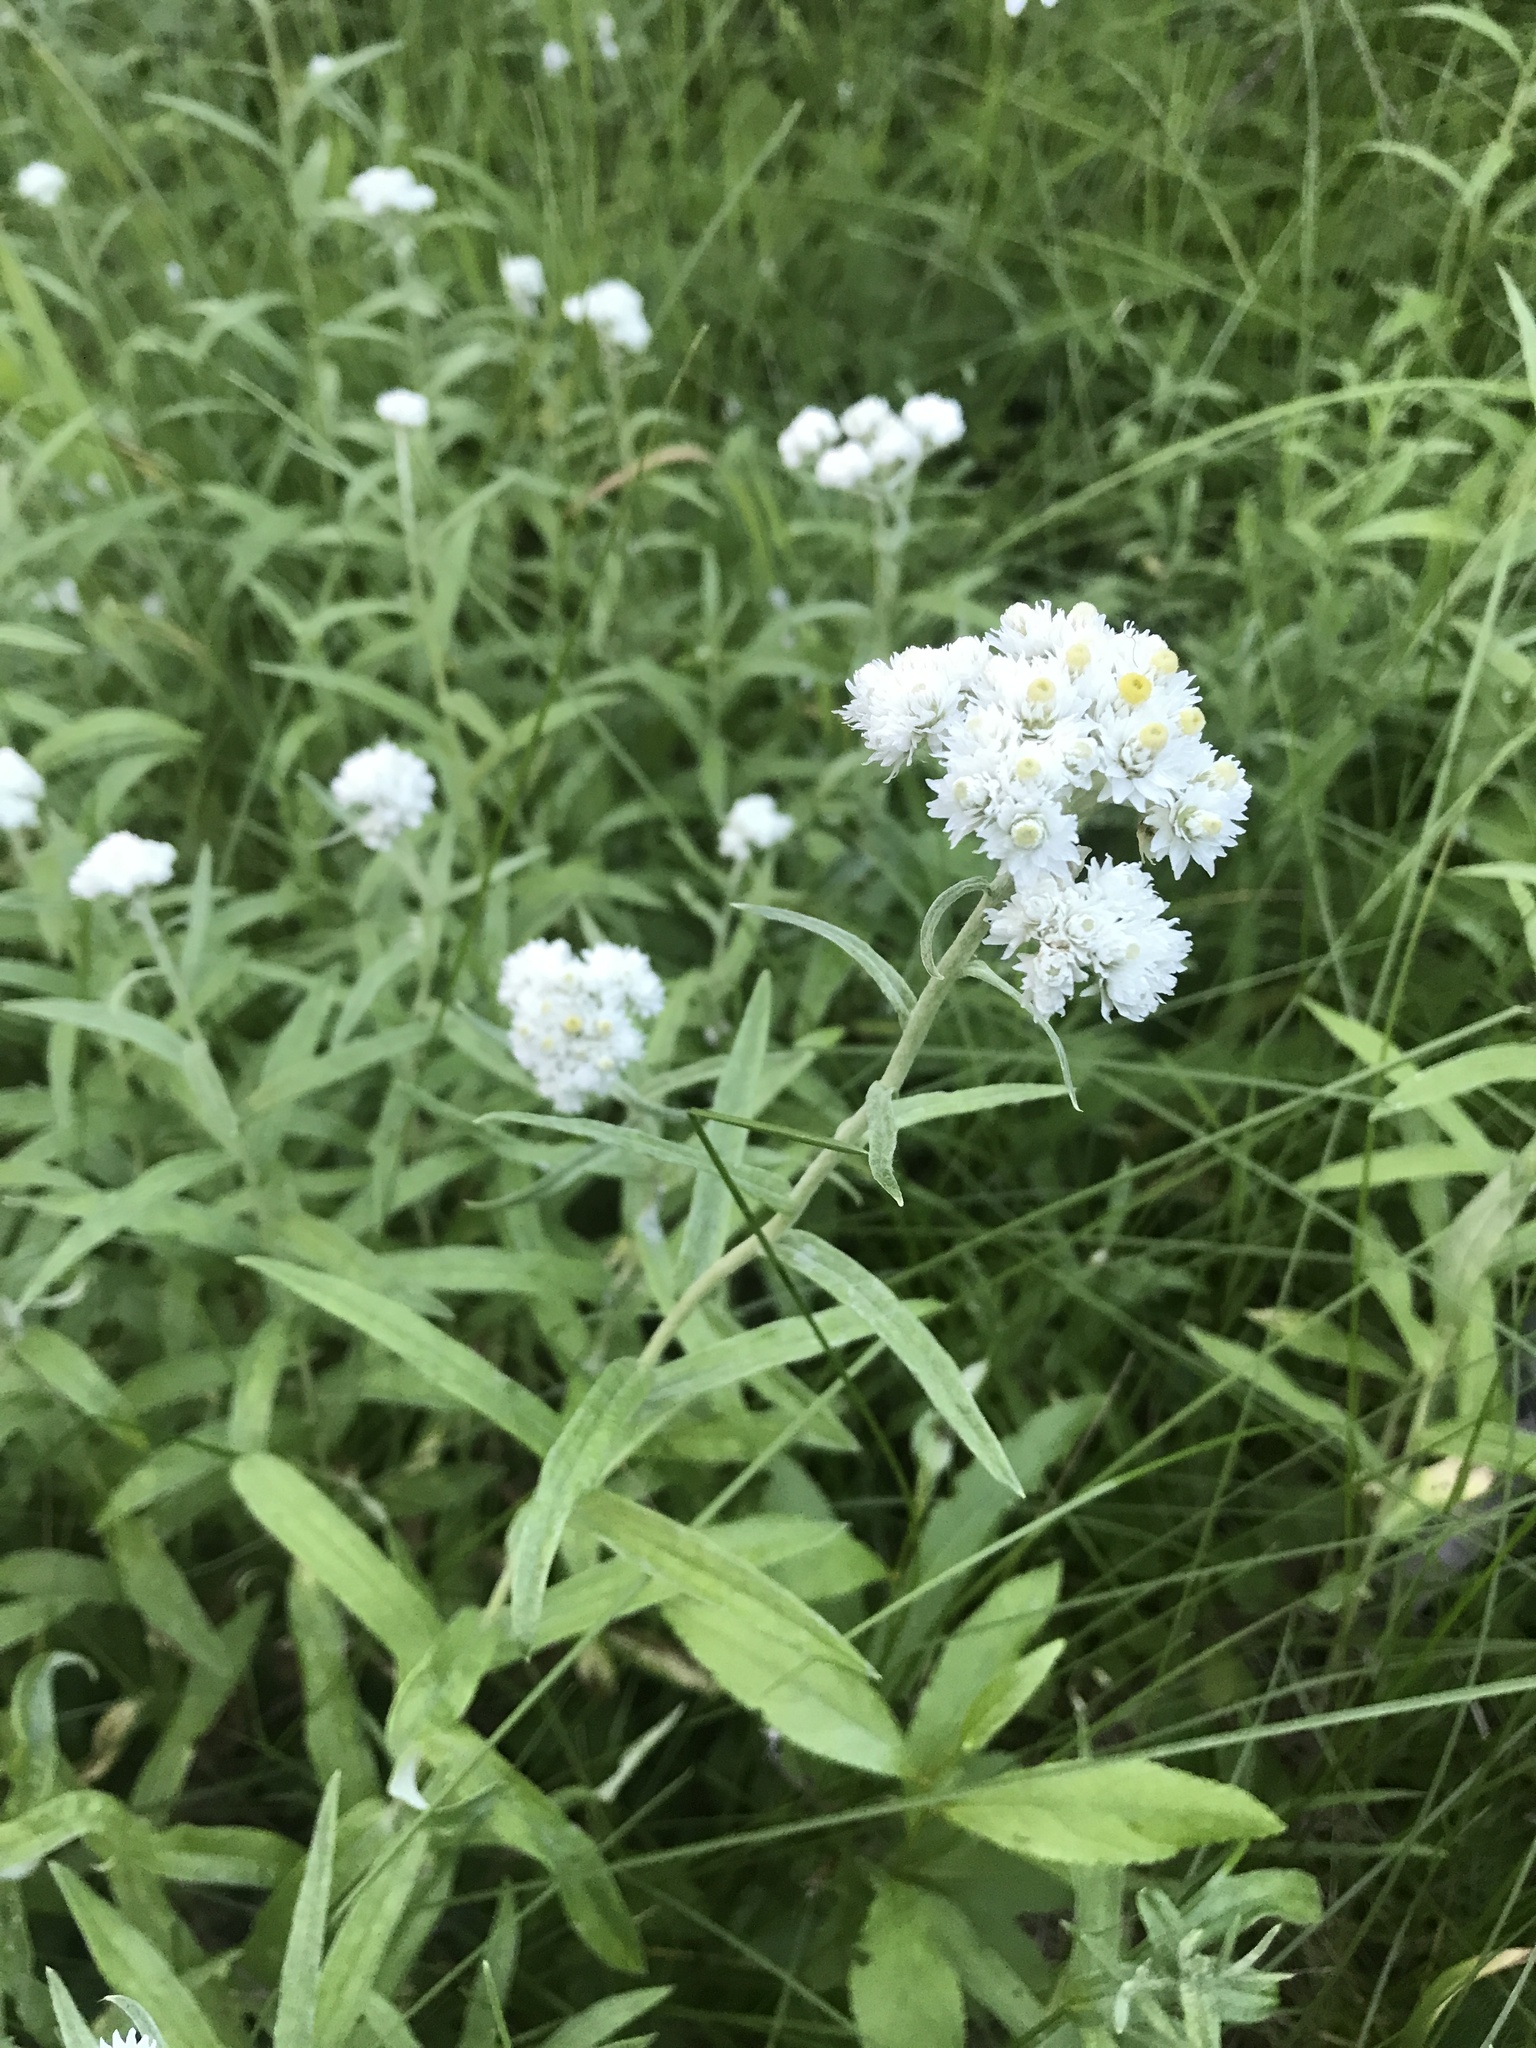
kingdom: Plantae
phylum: Tracheophyta
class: Magnoliopsida
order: Asterales
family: Asteraceae
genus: Anaphalis
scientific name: Anaphalis margaritacea
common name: Pearly everlasting
